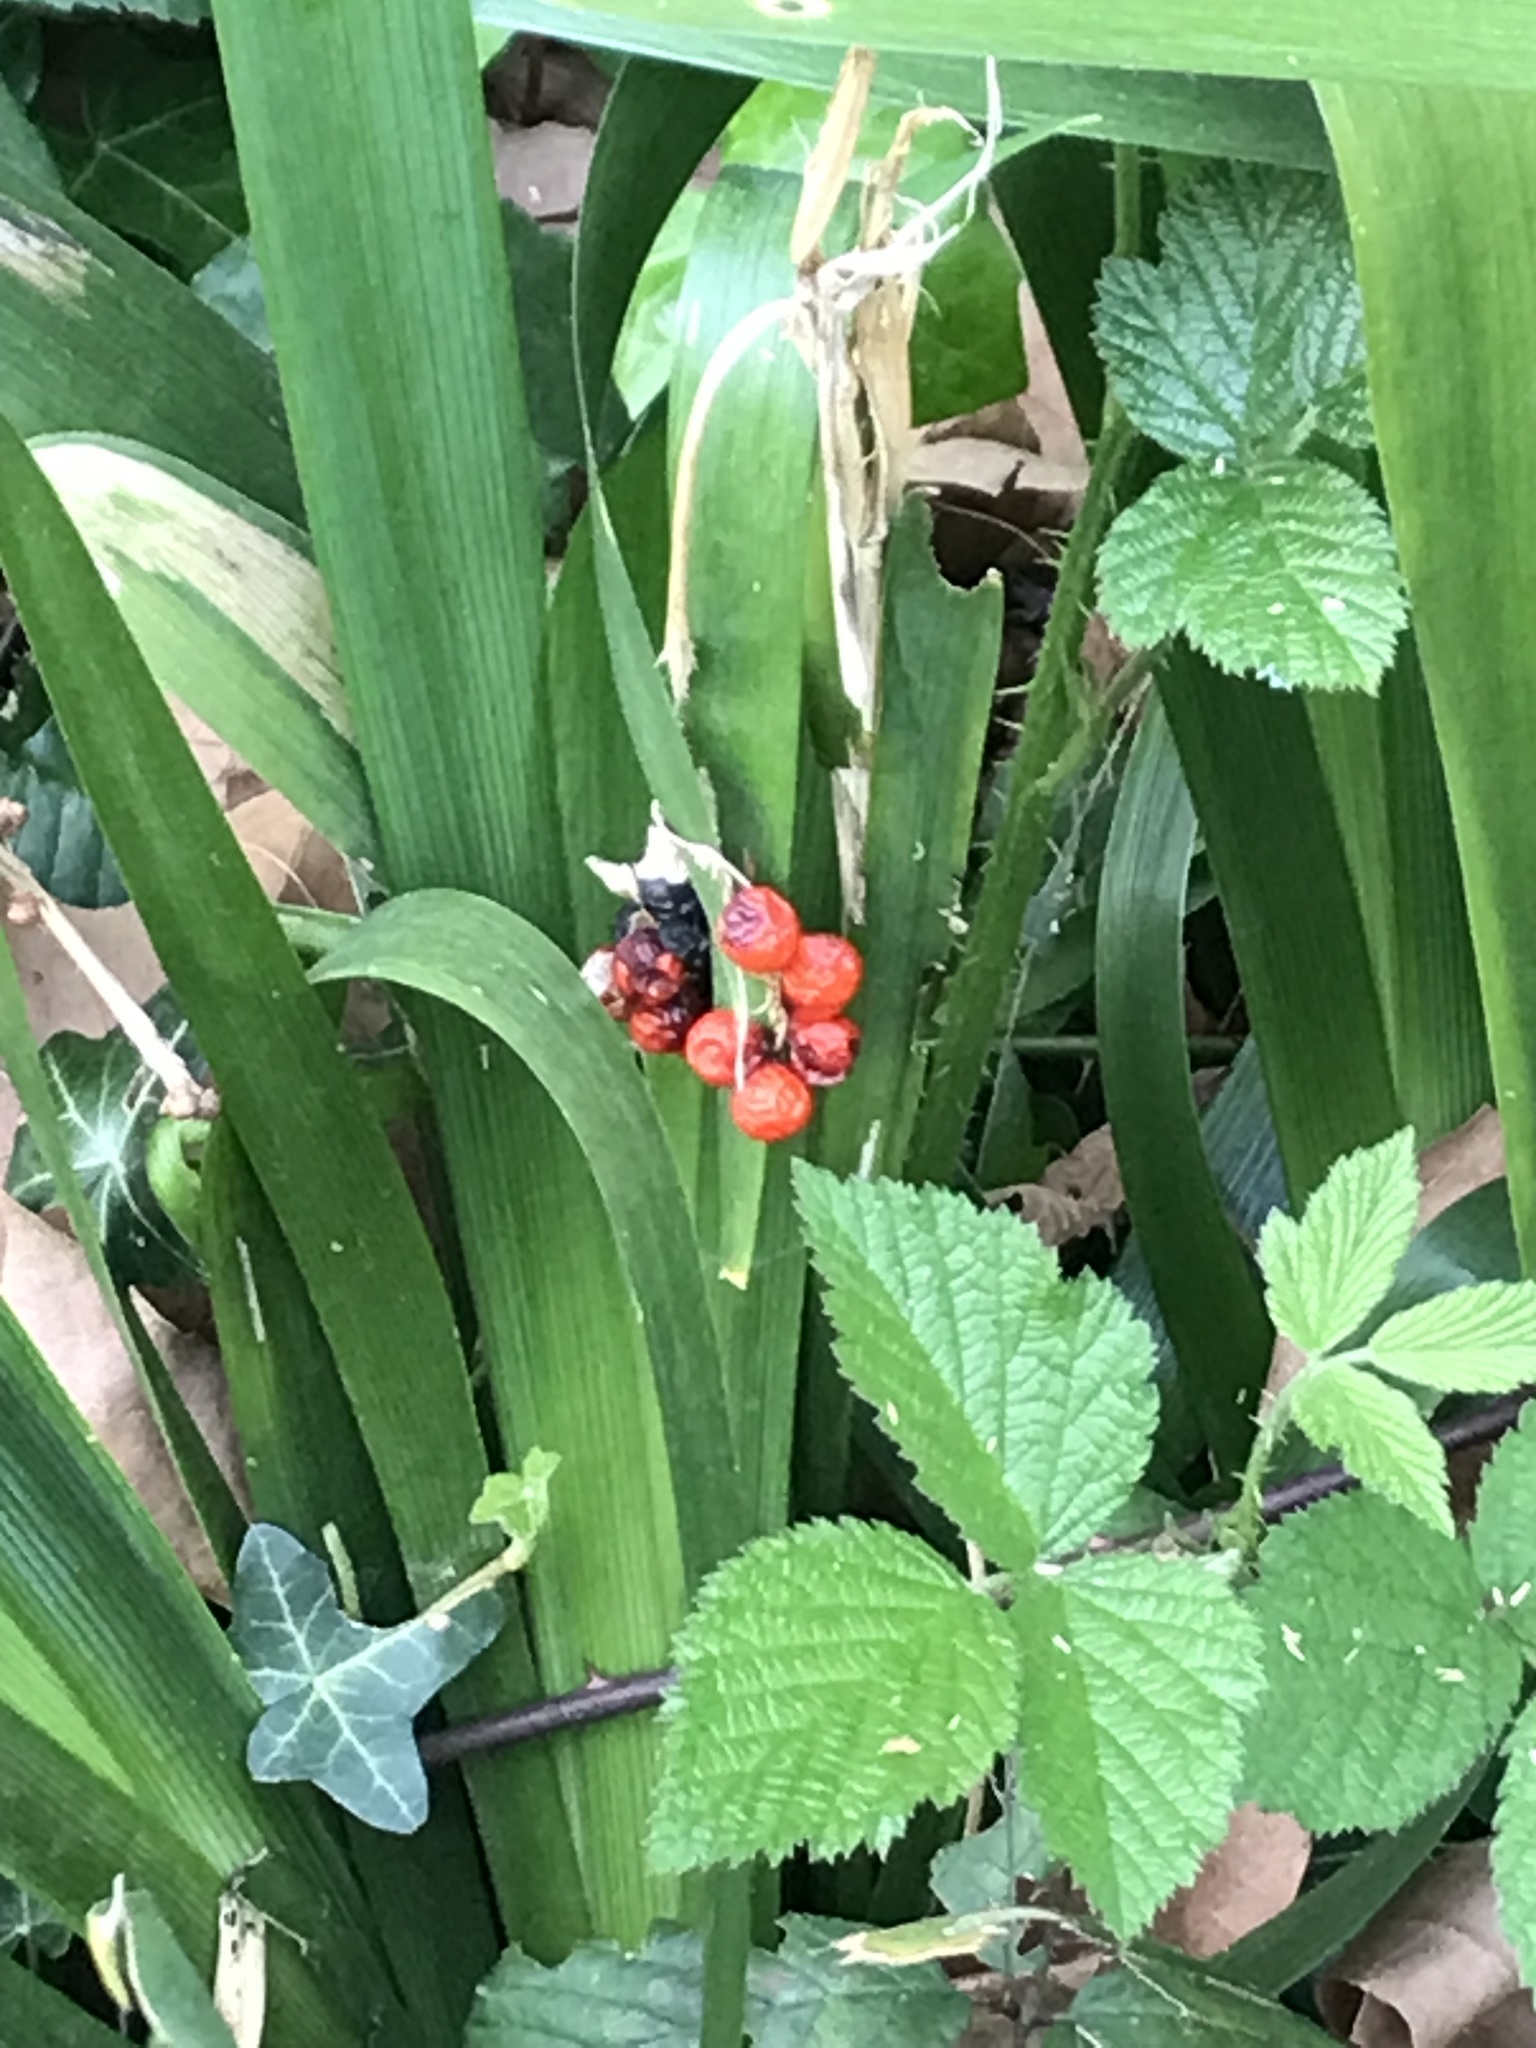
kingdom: Plantae
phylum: Tracheophyta
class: Liliopsida
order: Asparagales
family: Iridaceae
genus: Iris
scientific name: Iris foetidissima
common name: Stinking iris
